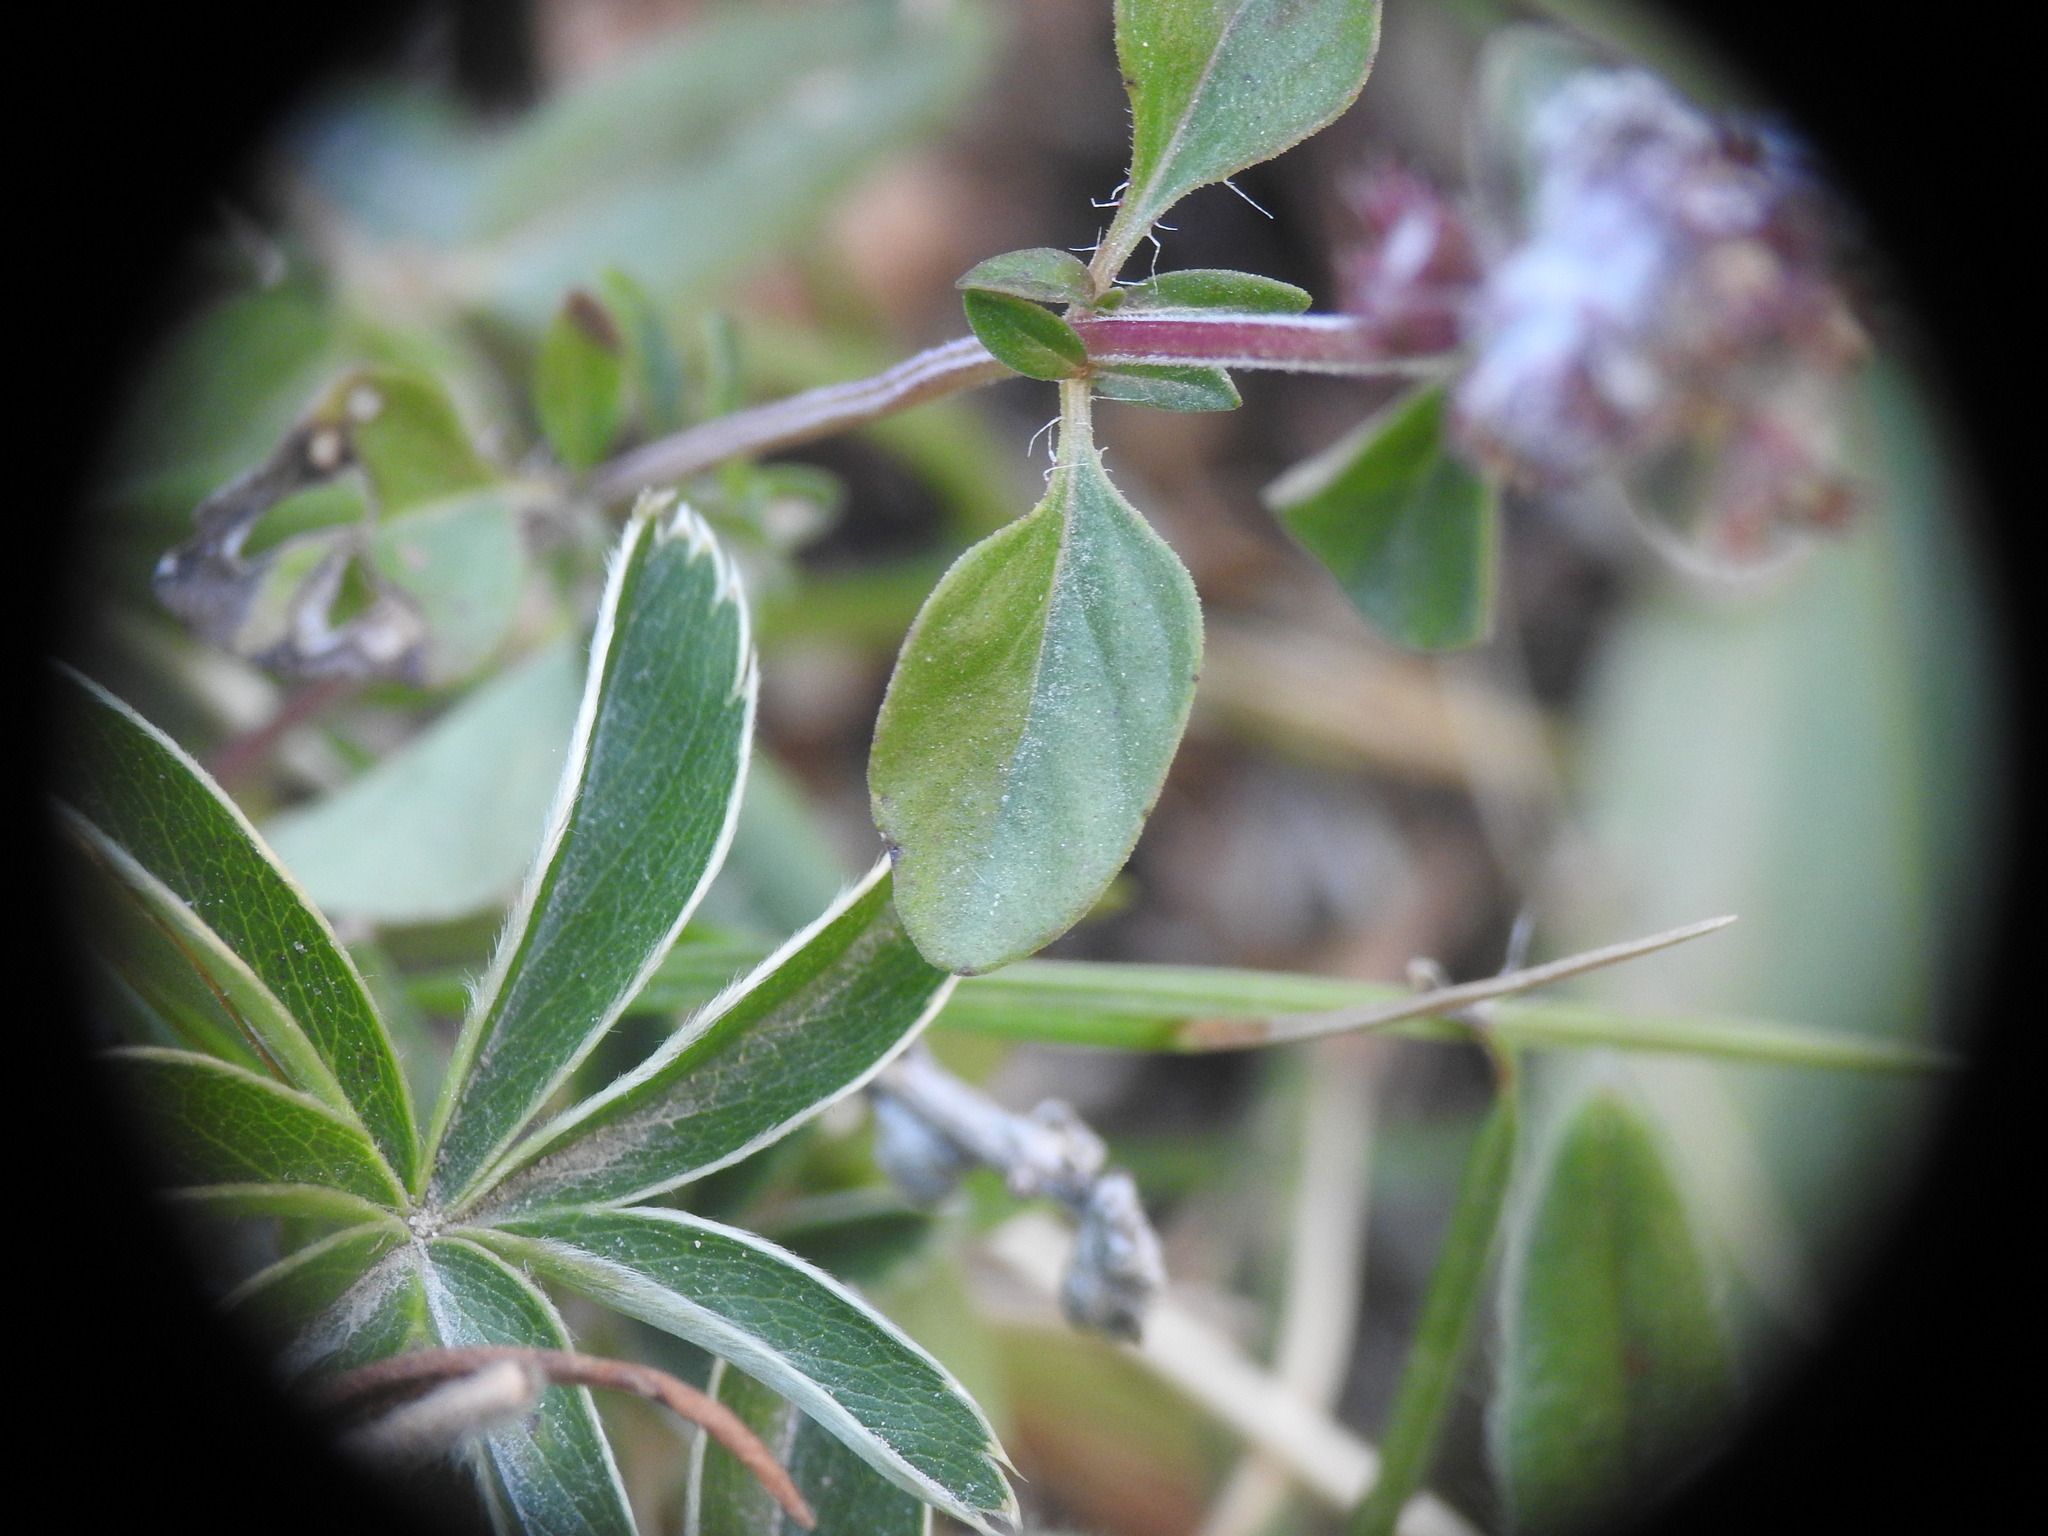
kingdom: Plantae
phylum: Tracheophyta
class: Magnoliopsida
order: Lamiales
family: Lamiaceae
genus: Thymus
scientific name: Thymus pulegioides
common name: Large thyme
